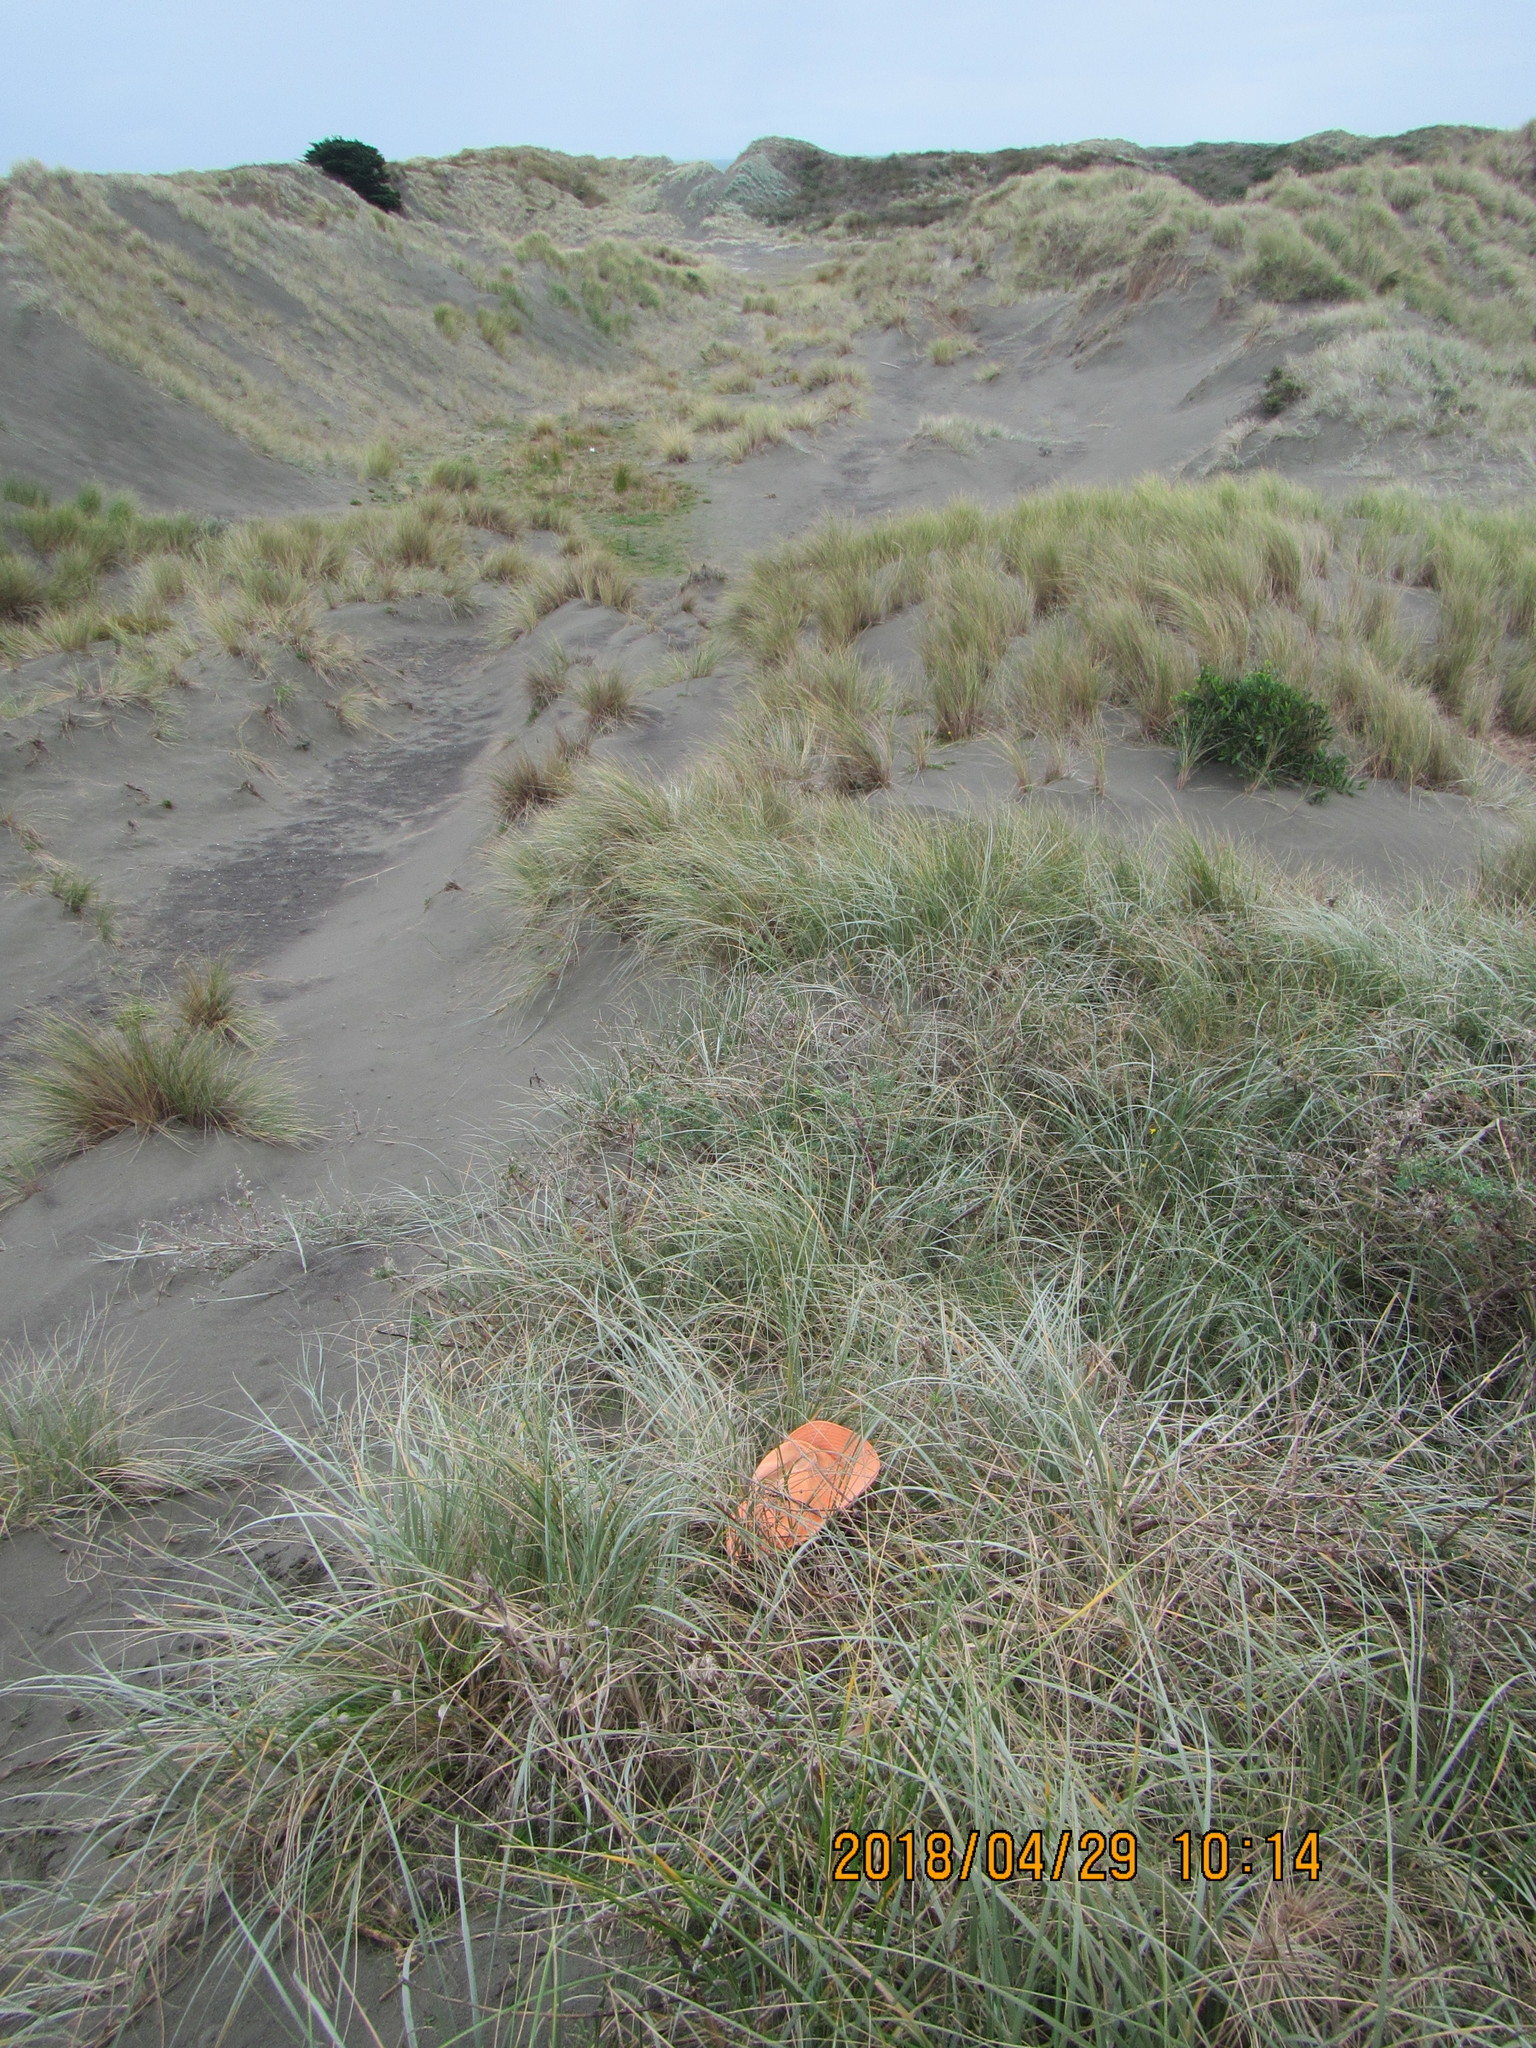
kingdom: Animalia
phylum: Arthropoda
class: Arachnida
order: Araneae
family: Mimetidae
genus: Australomimetus
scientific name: Australomimetus hartleyensis
